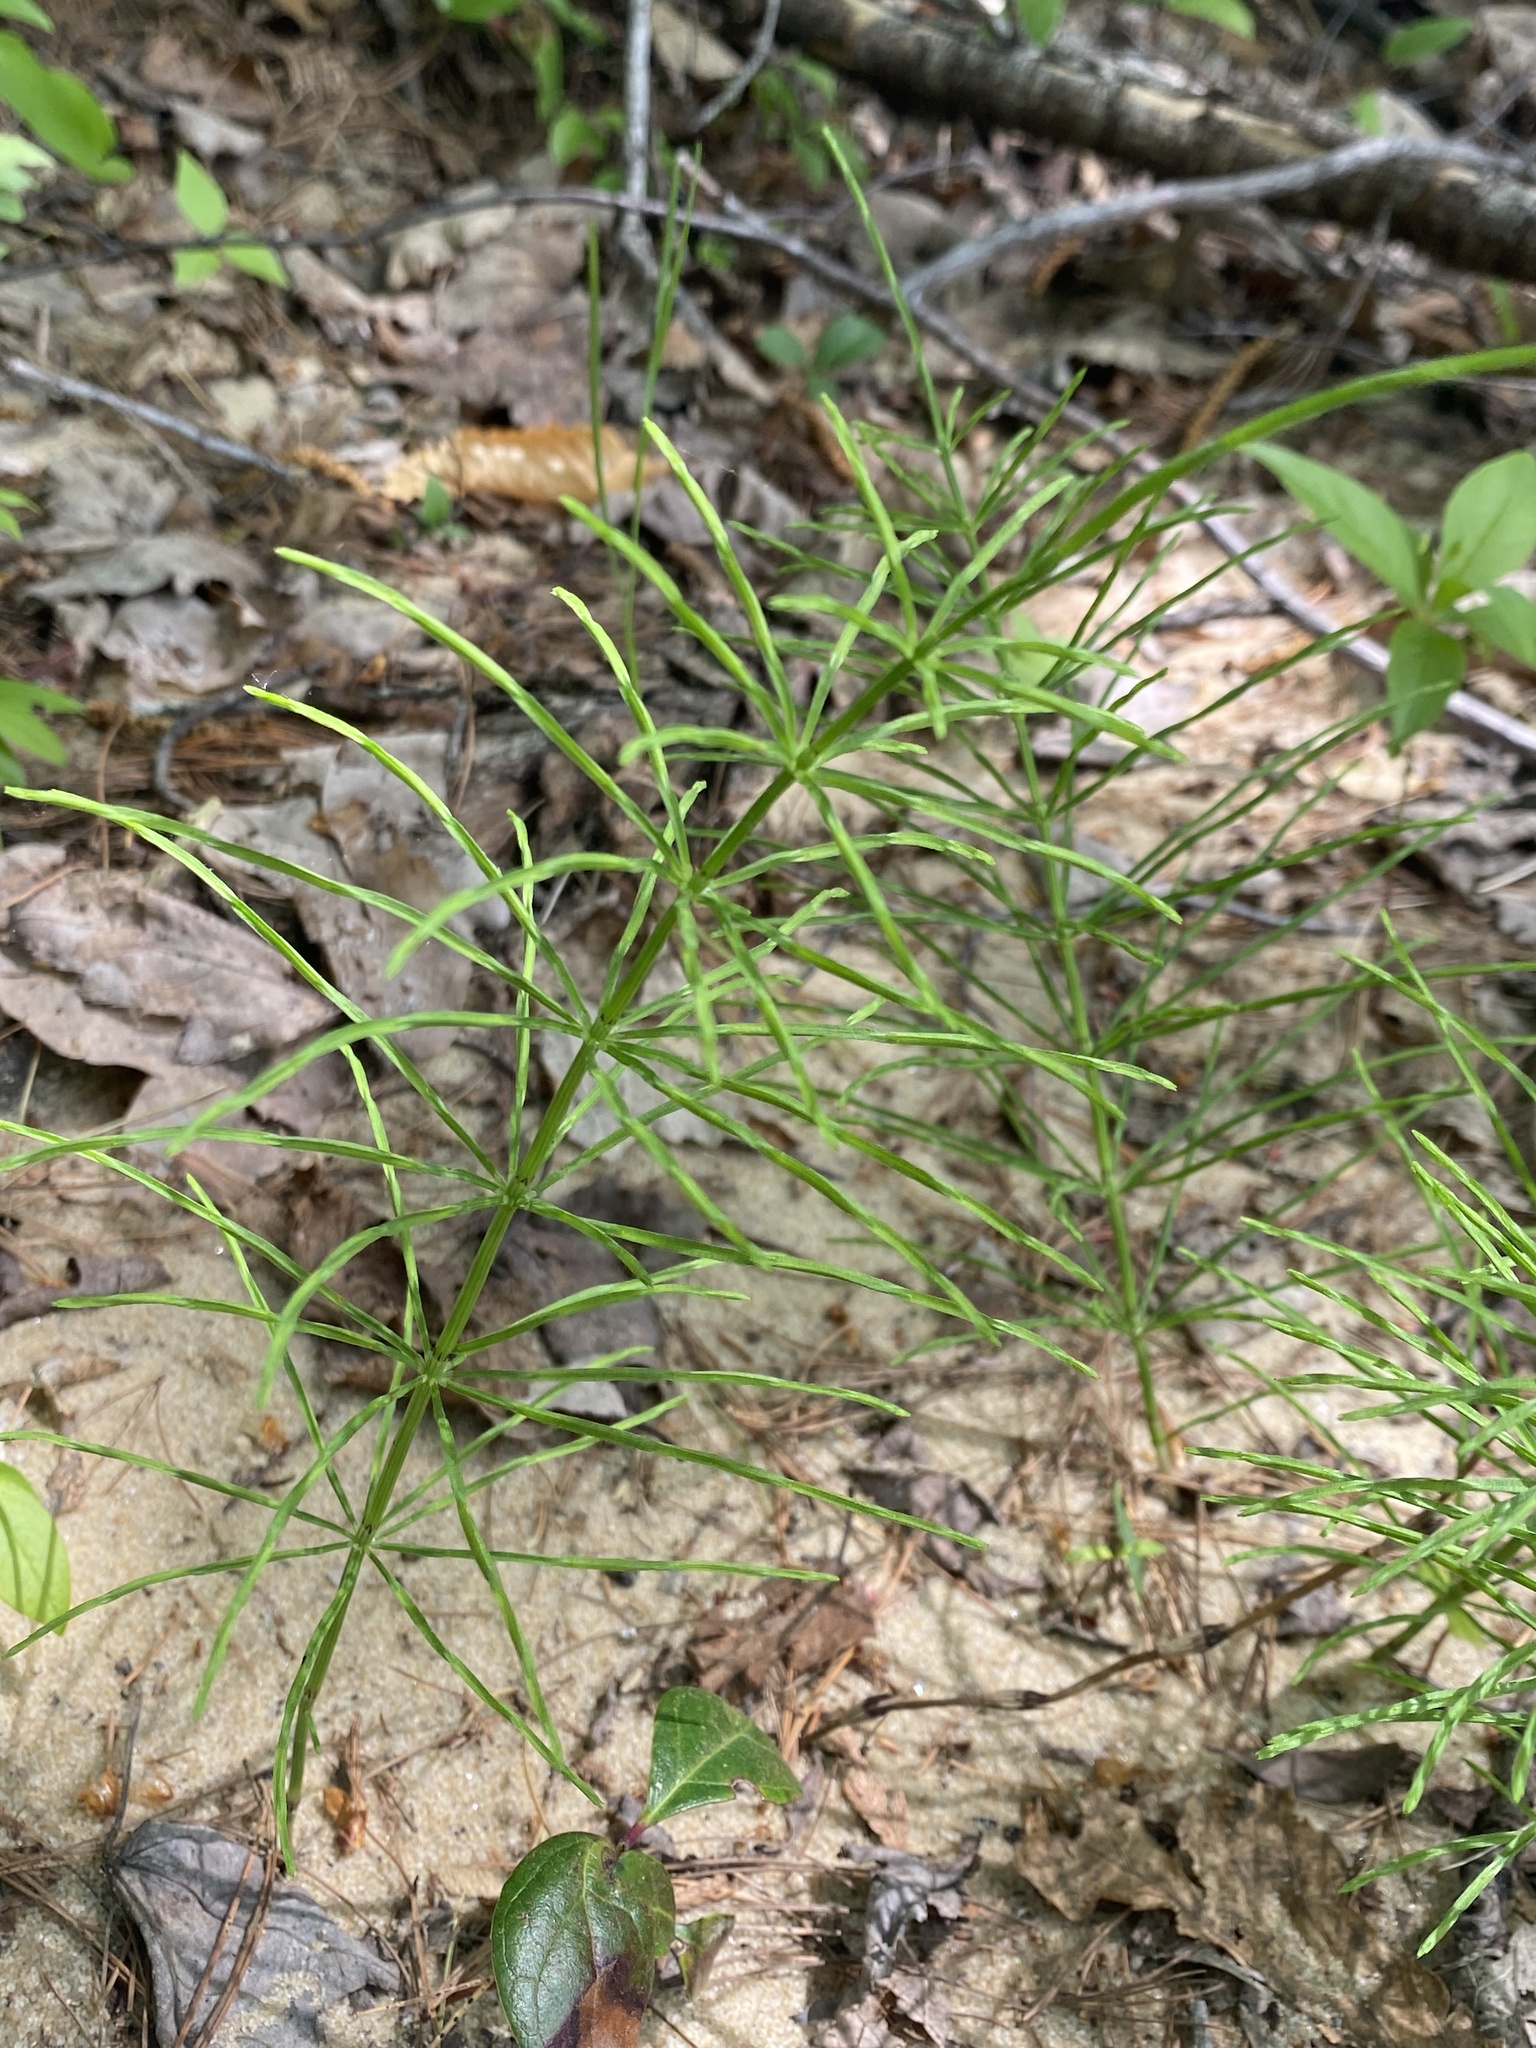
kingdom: Plantae
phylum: Tracheophyta
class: Polypodiopsida
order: Equisetales
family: Equisetaceae
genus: Equisetum
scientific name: Equisetum arvense
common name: Field horsetail
